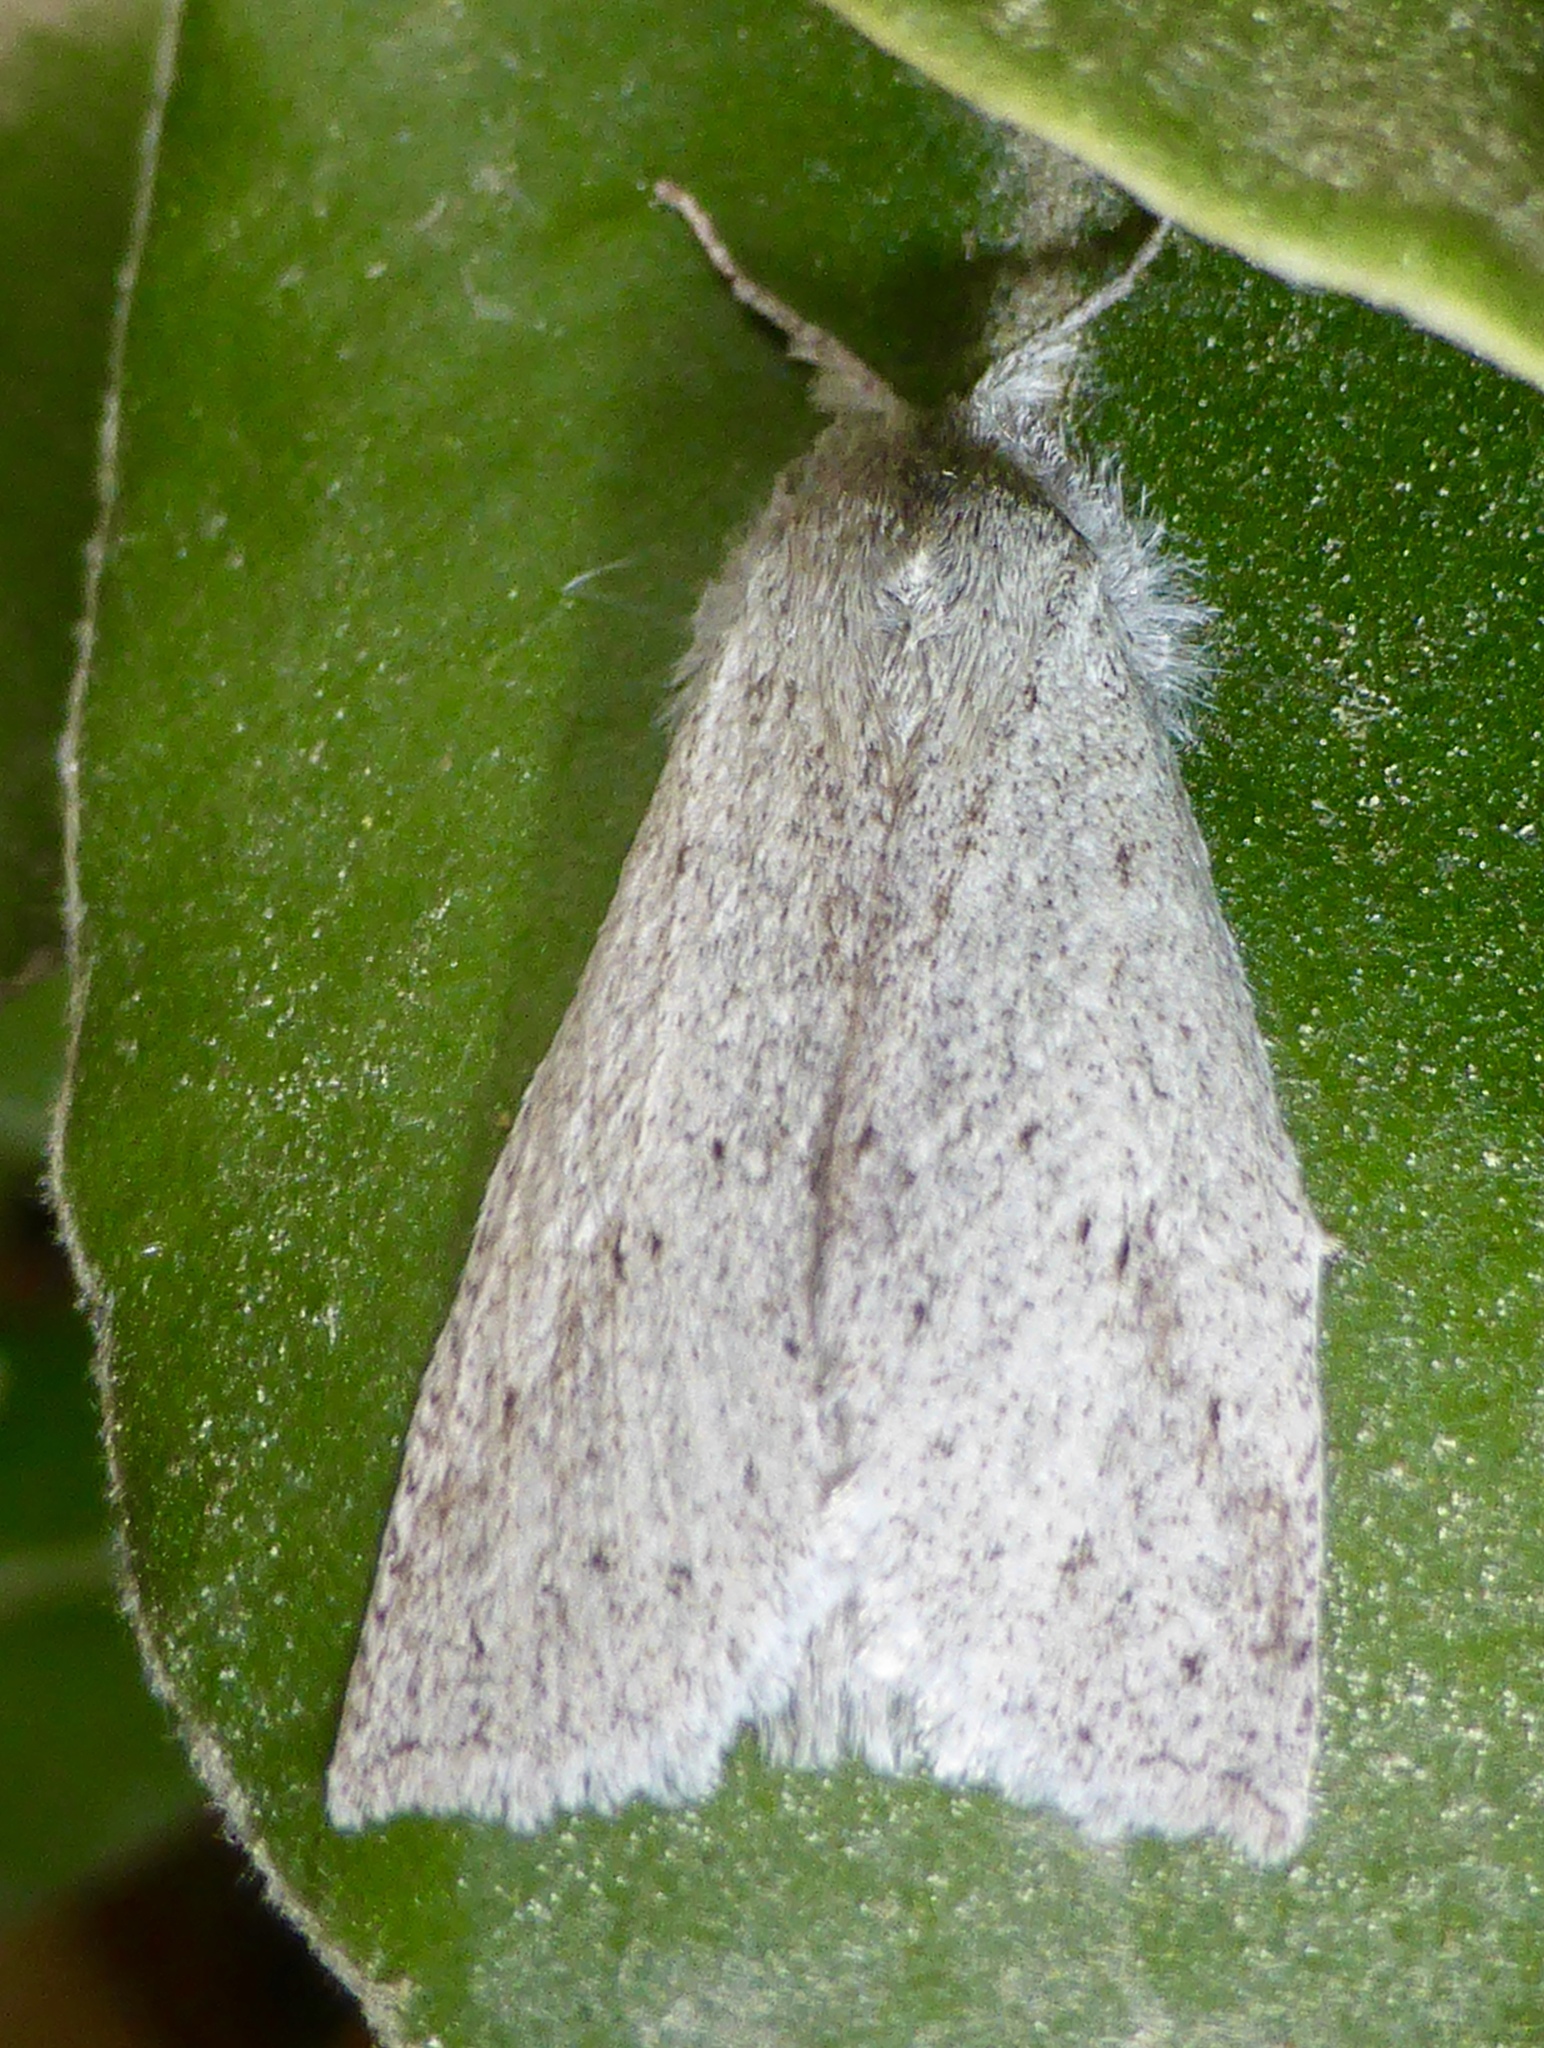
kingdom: Animalia
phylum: Arthropoda
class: Insecta
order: Lepidoptera
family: Geometridae
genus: Declana
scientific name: Declana leptomera
